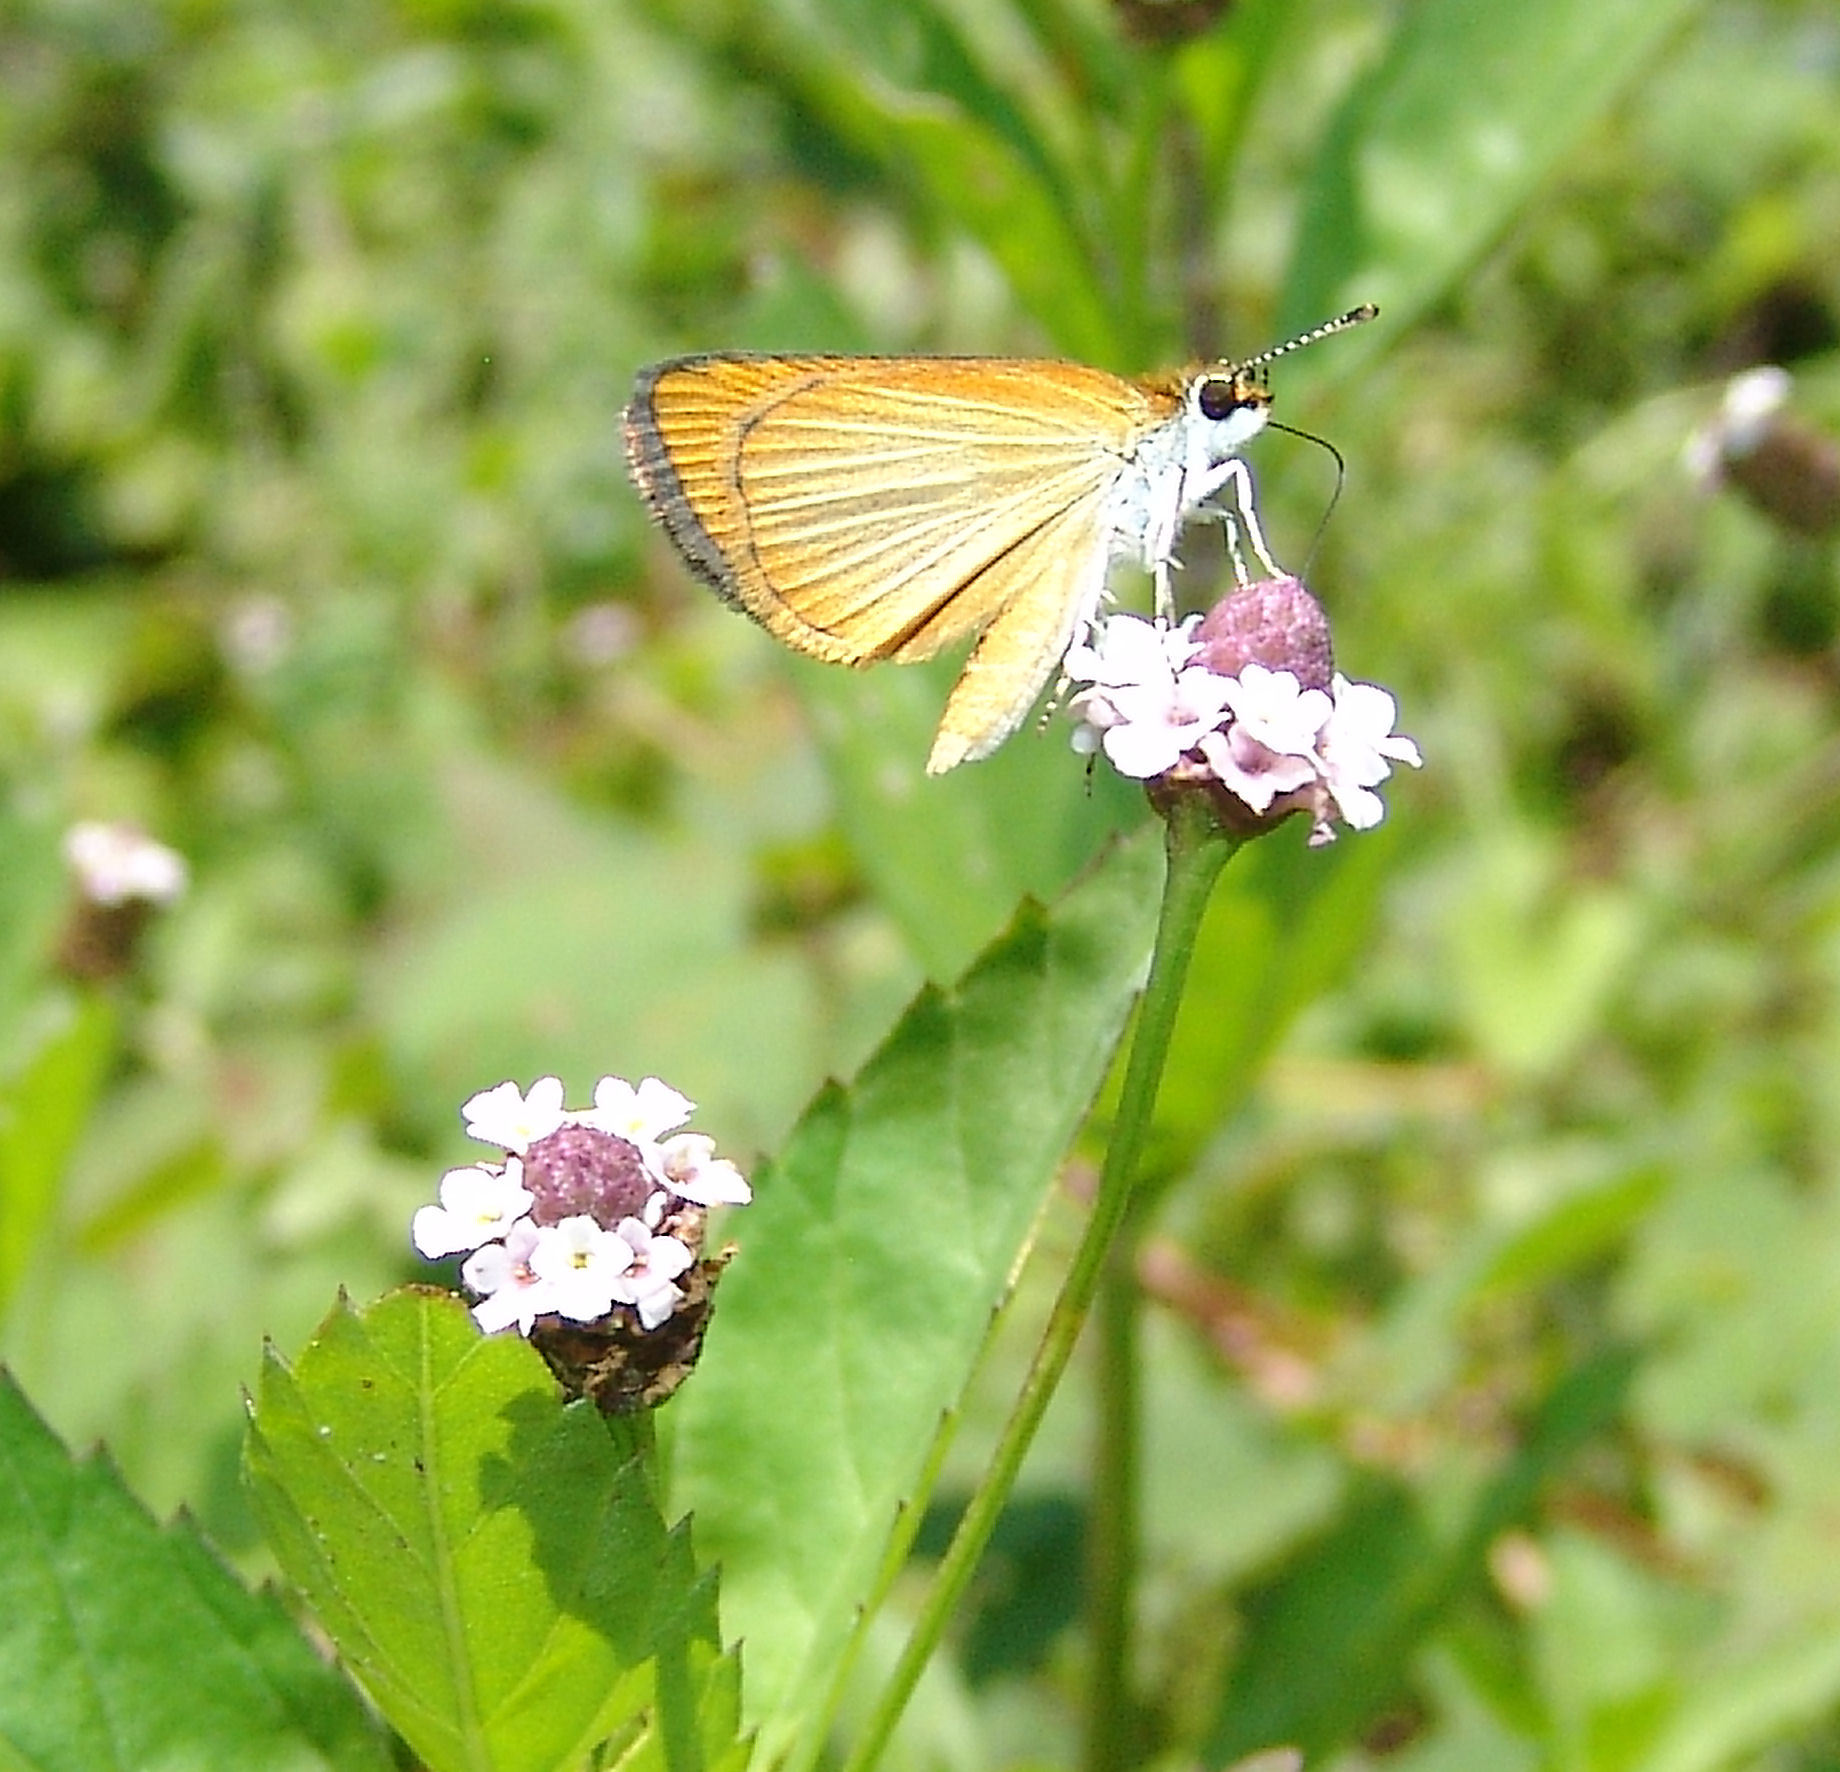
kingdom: Animalia
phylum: Arthropoda
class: Insecta
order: Lepidoptera
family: Hesperiidae
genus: Ancyloxypha
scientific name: Ancyloxypha numitor
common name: Least skipper
